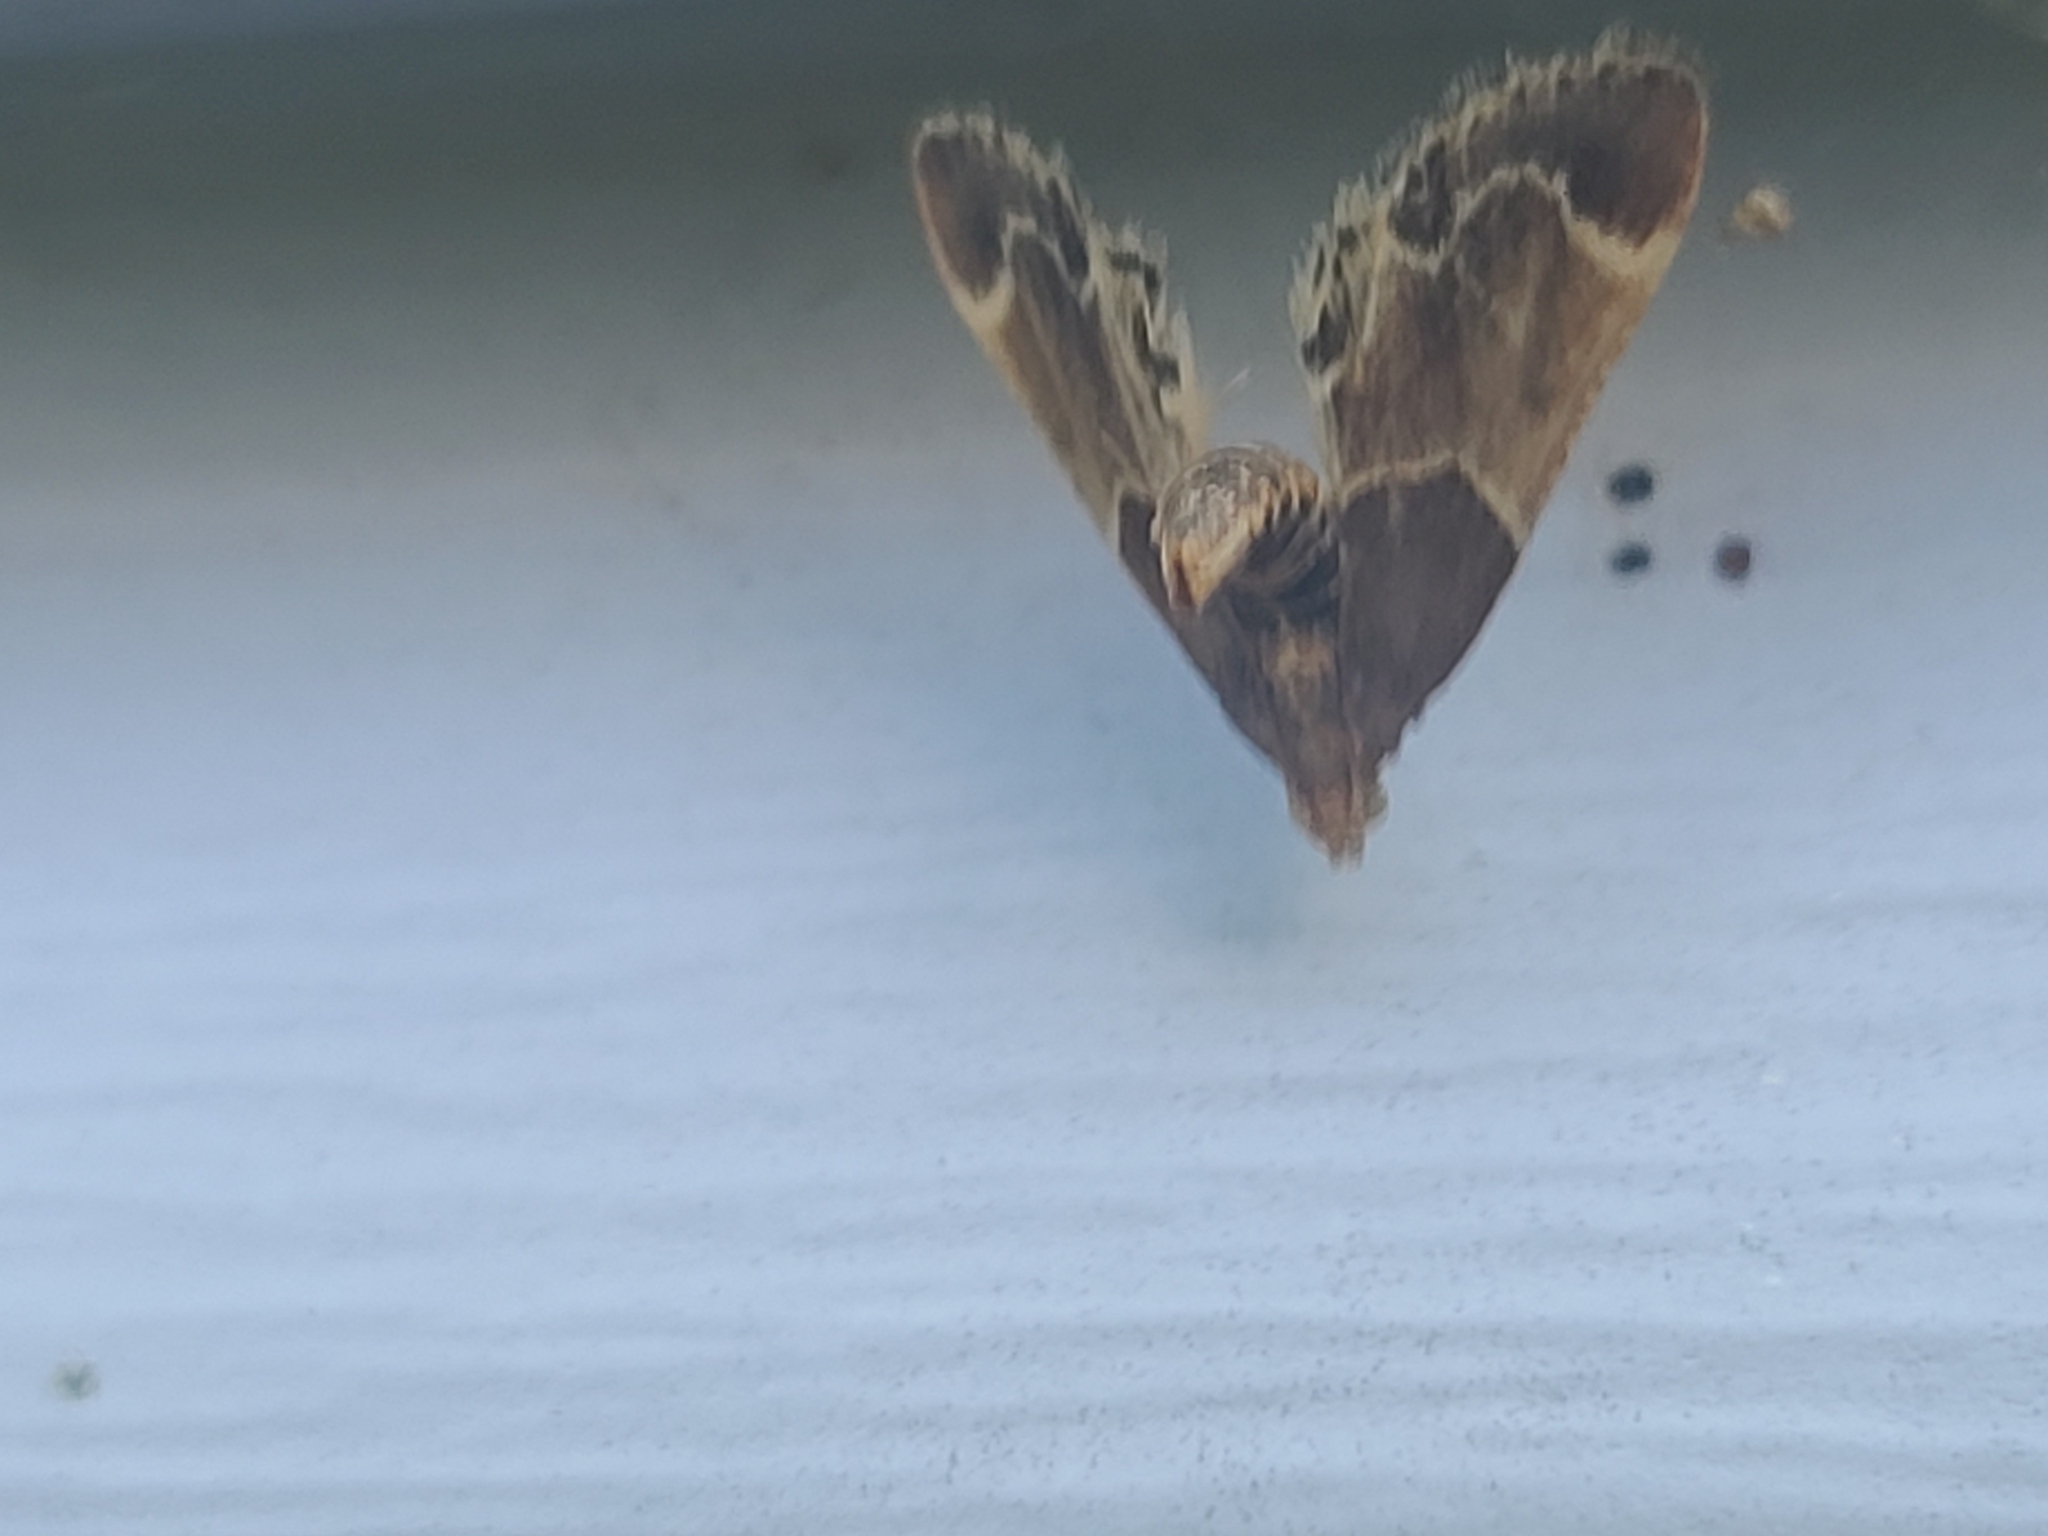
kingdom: Animalia
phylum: Arthropoda
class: Insecta
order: Lepidoptera
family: Pyralidae
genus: Pyralis
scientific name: Pyralis farinalis
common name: Meal moth
